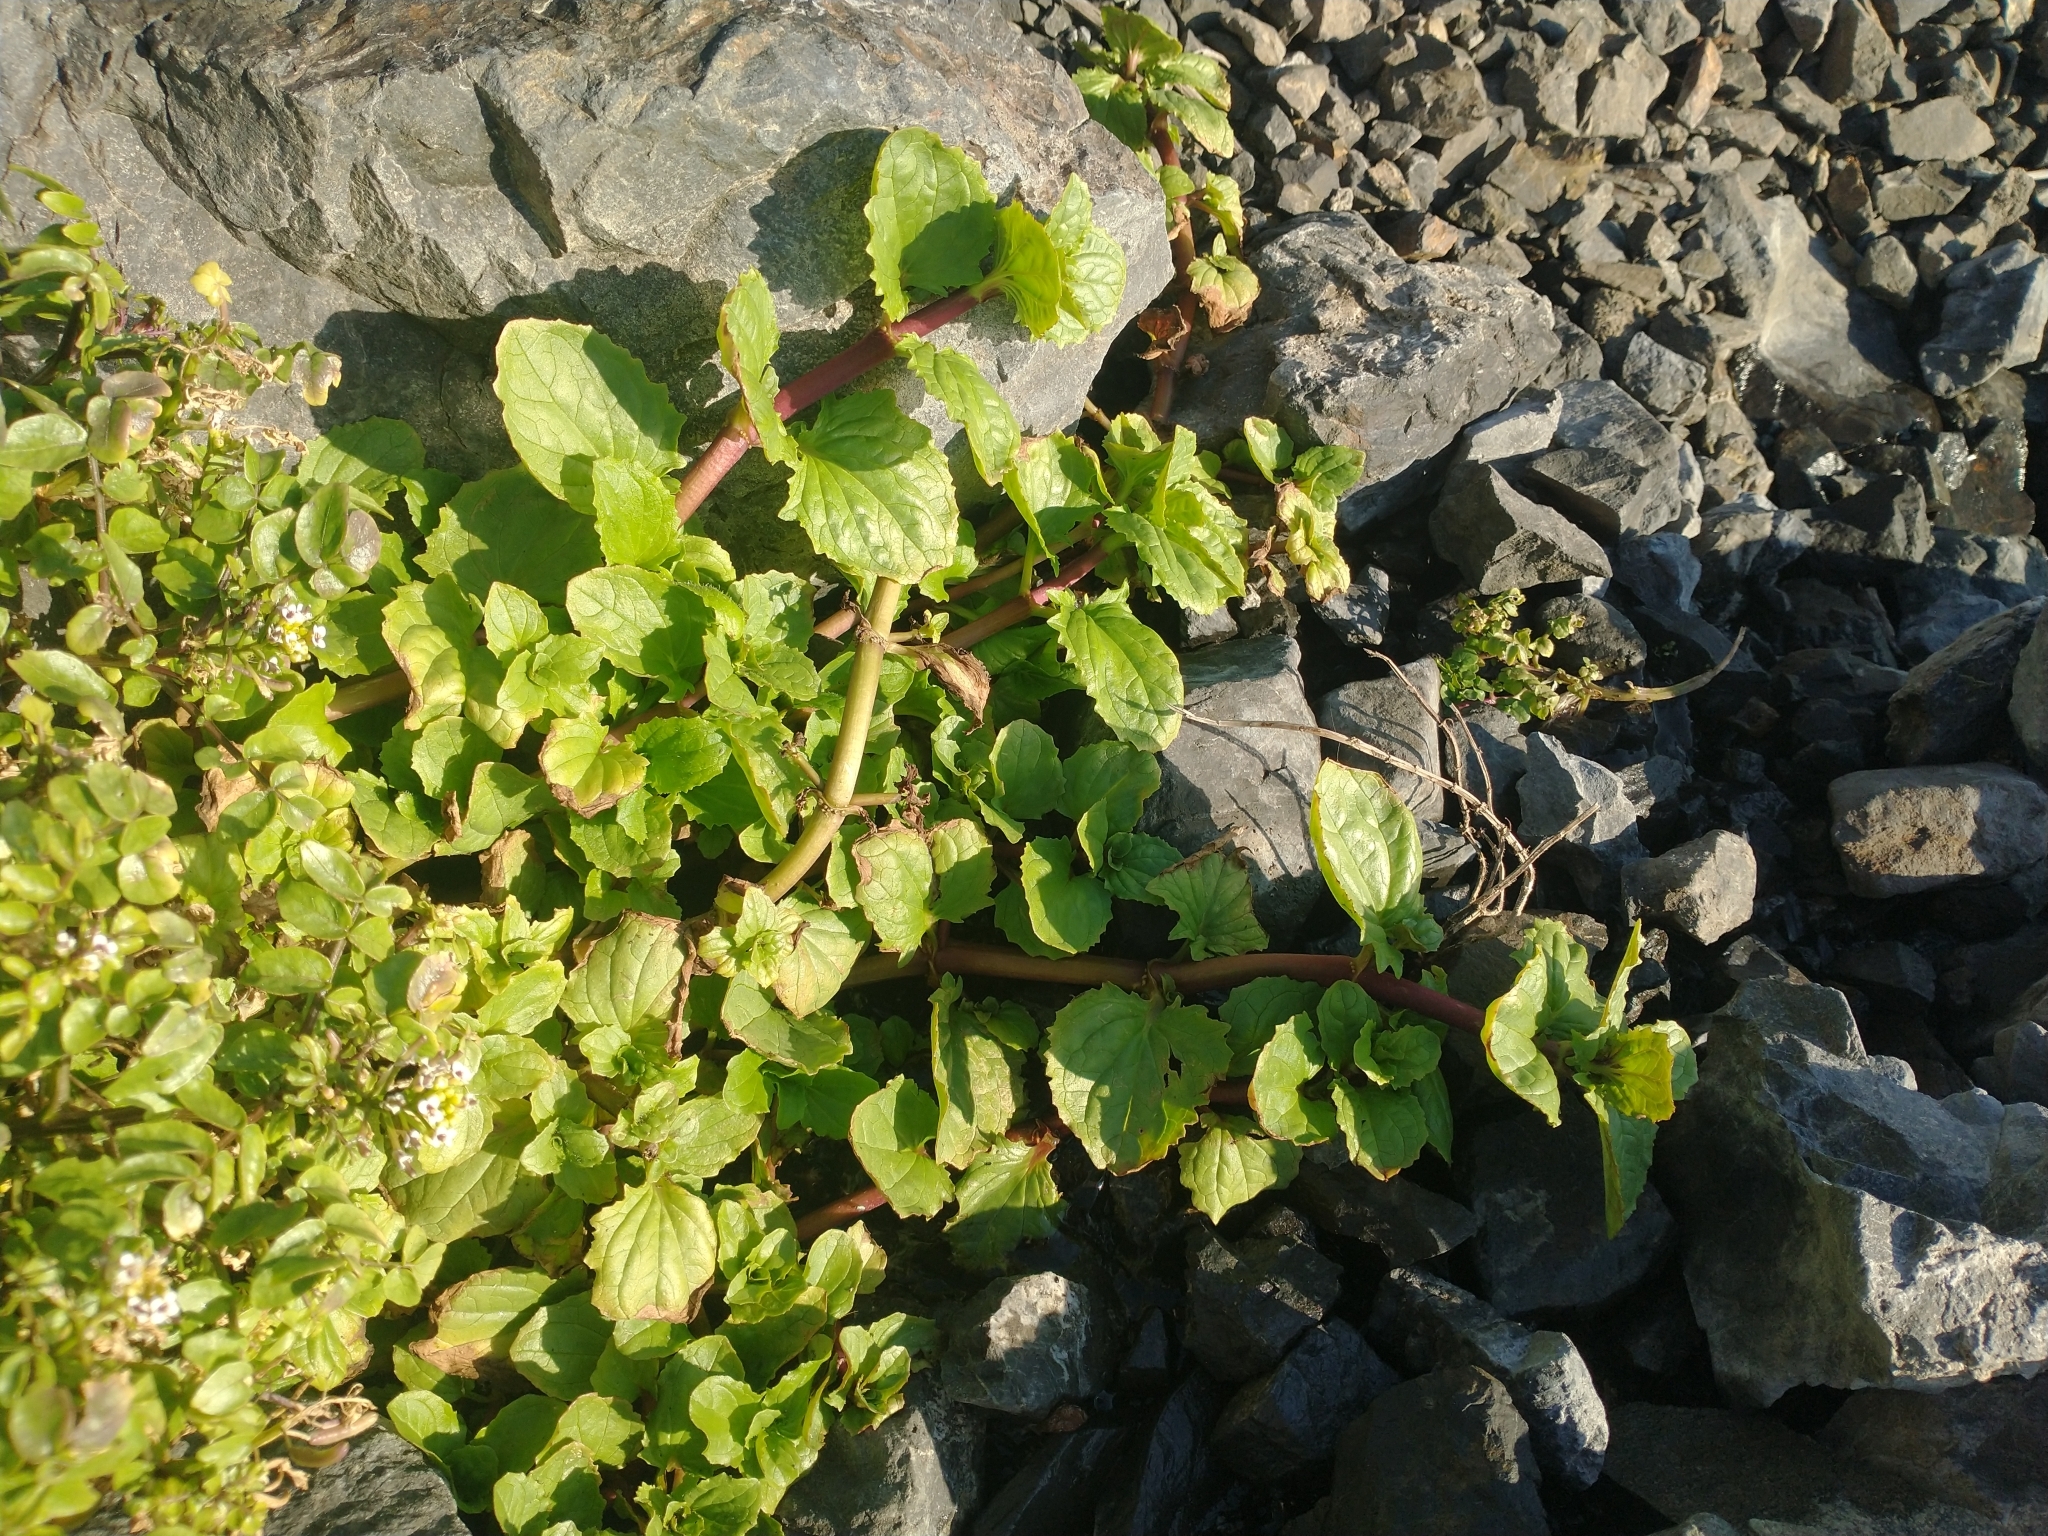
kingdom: Plantae
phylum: Tracheophyta
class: Magnoliopsida
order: Lamiales
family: Phrymaceae
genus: Erythranthe
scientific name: Erythranthe grandis
